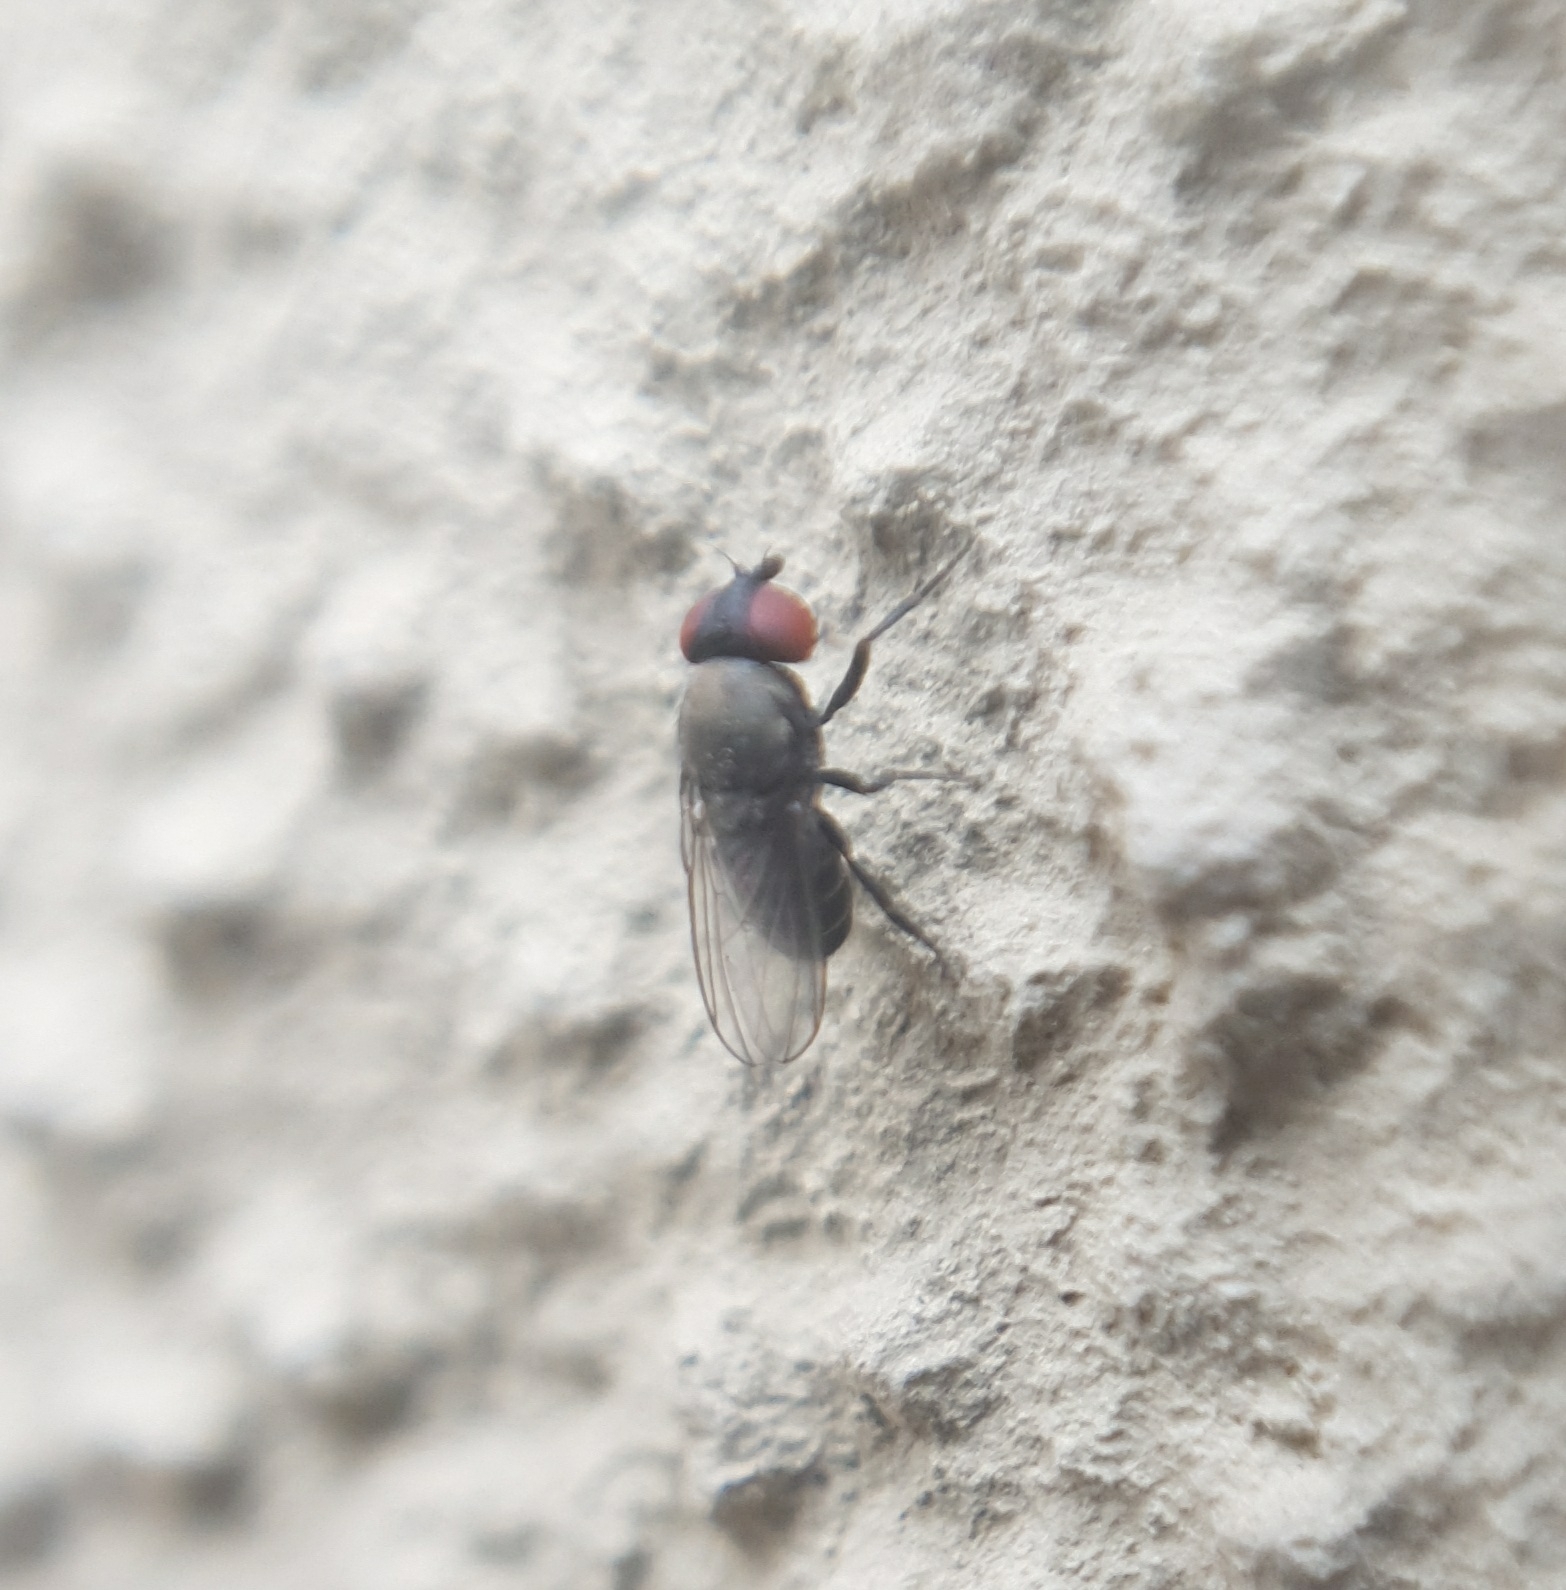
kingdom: Animalia
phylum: Arthropoda
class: Insecta
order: Diptera
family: Drosophilidae
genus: Cacoxenus
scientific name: Cacoxenus indagator
